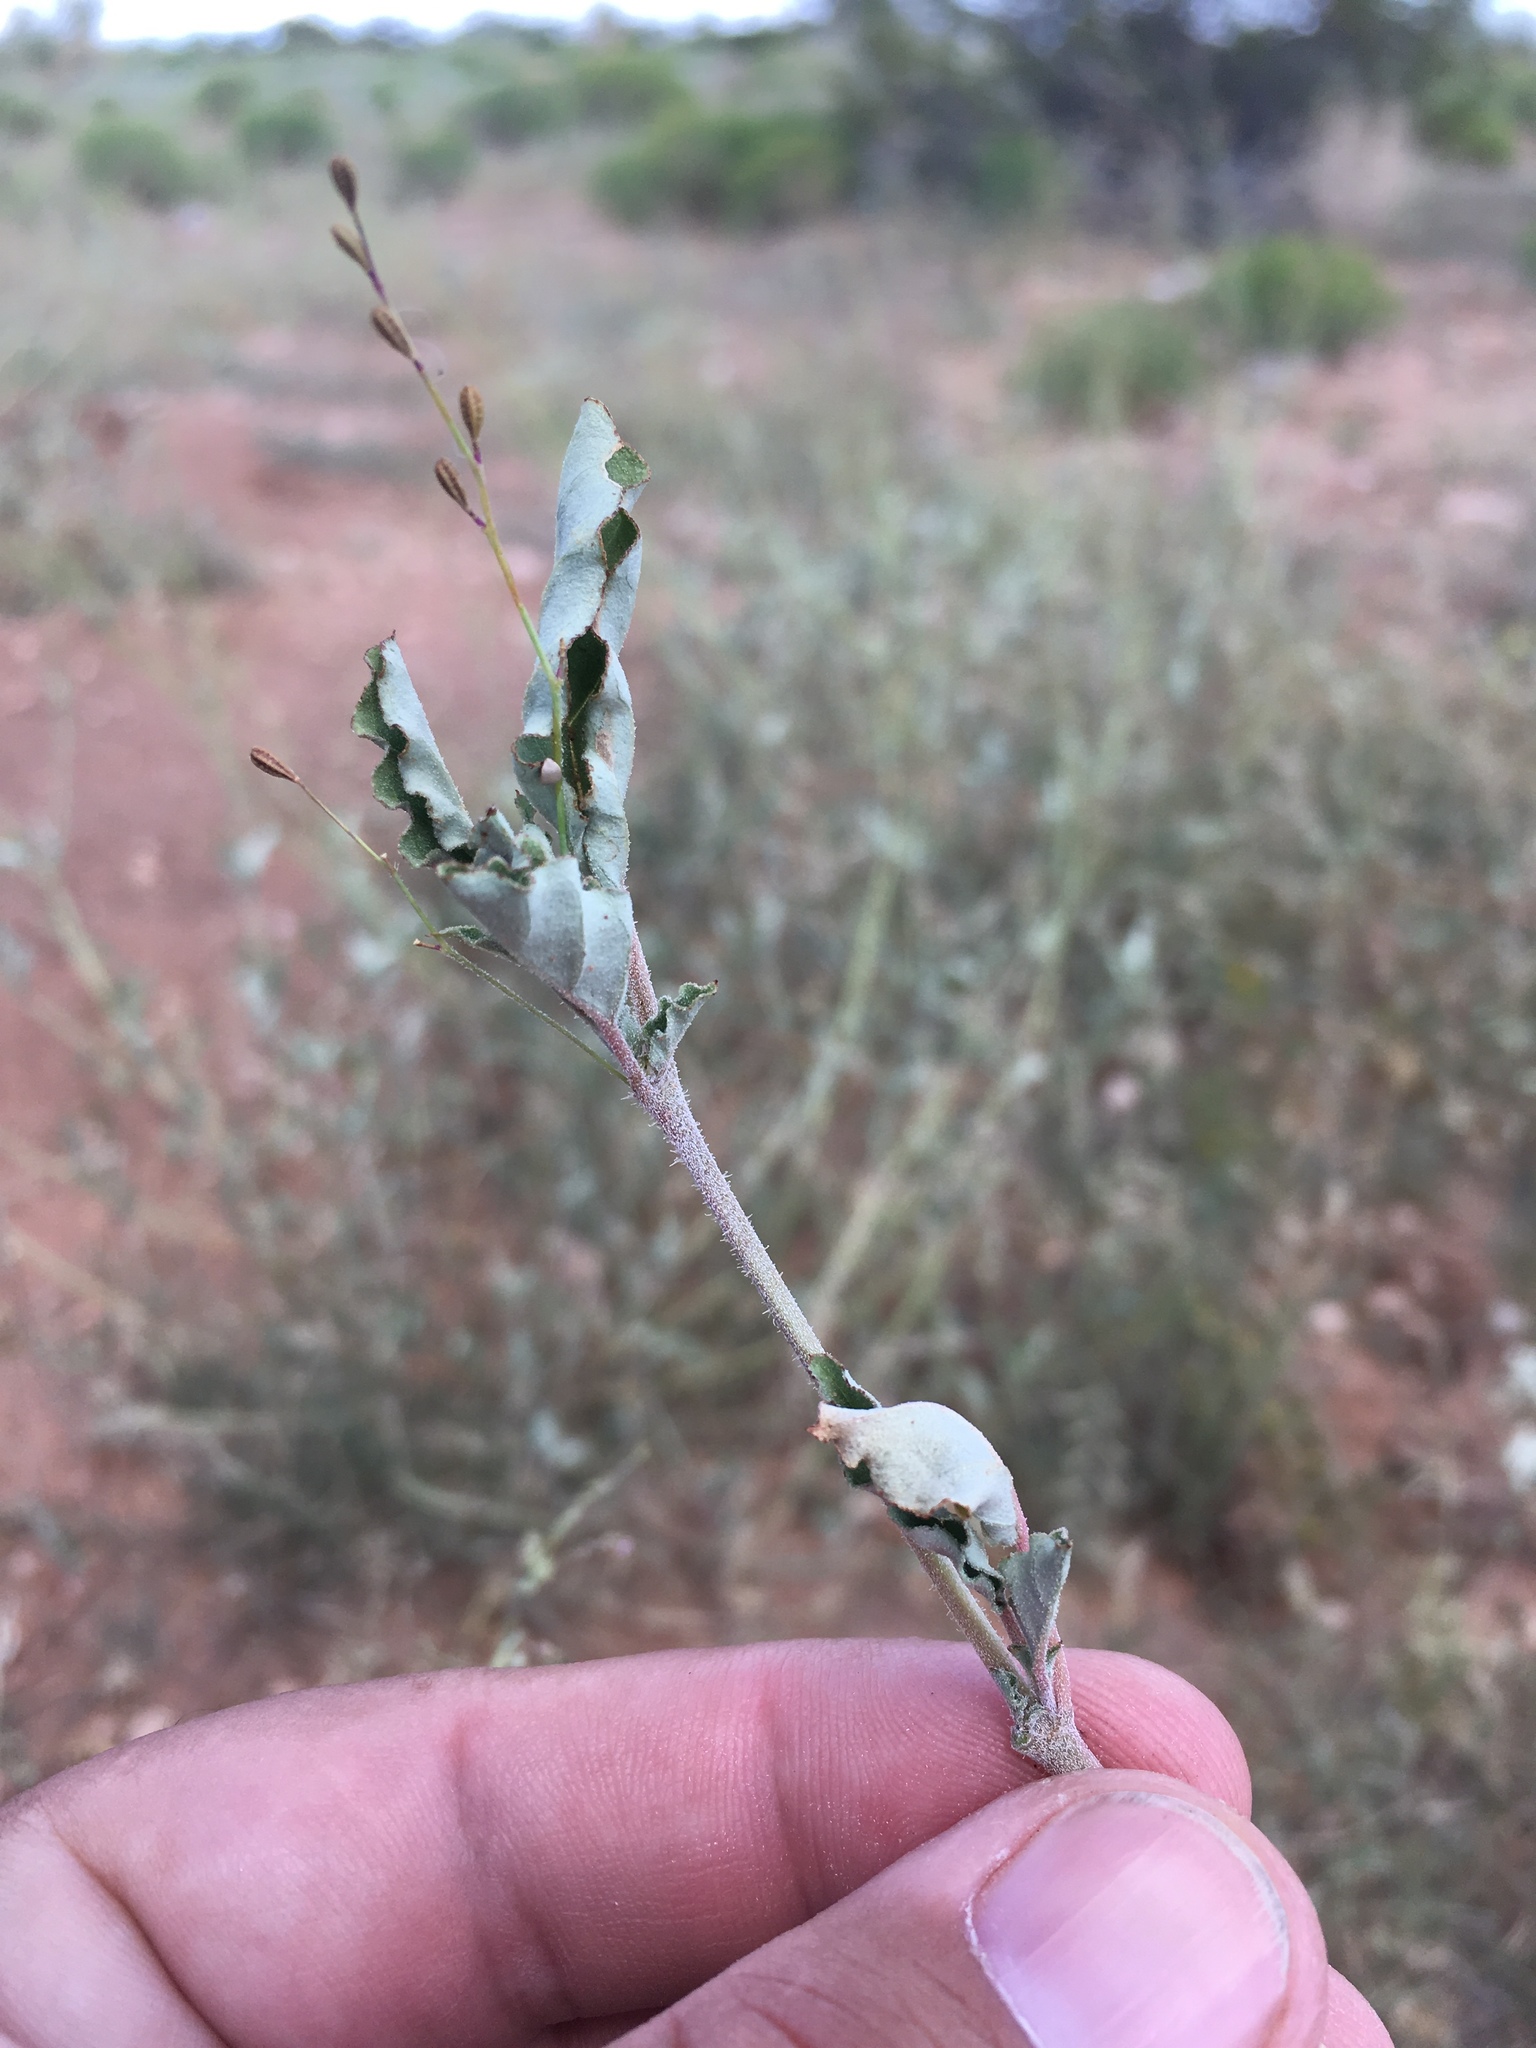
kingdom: Plantae
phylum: Tracheophyta
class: Magnoliopsida
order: Caryophyllales
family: Nyctaginaceae
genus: Boerhavia
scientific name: Boerhavia torreyana
